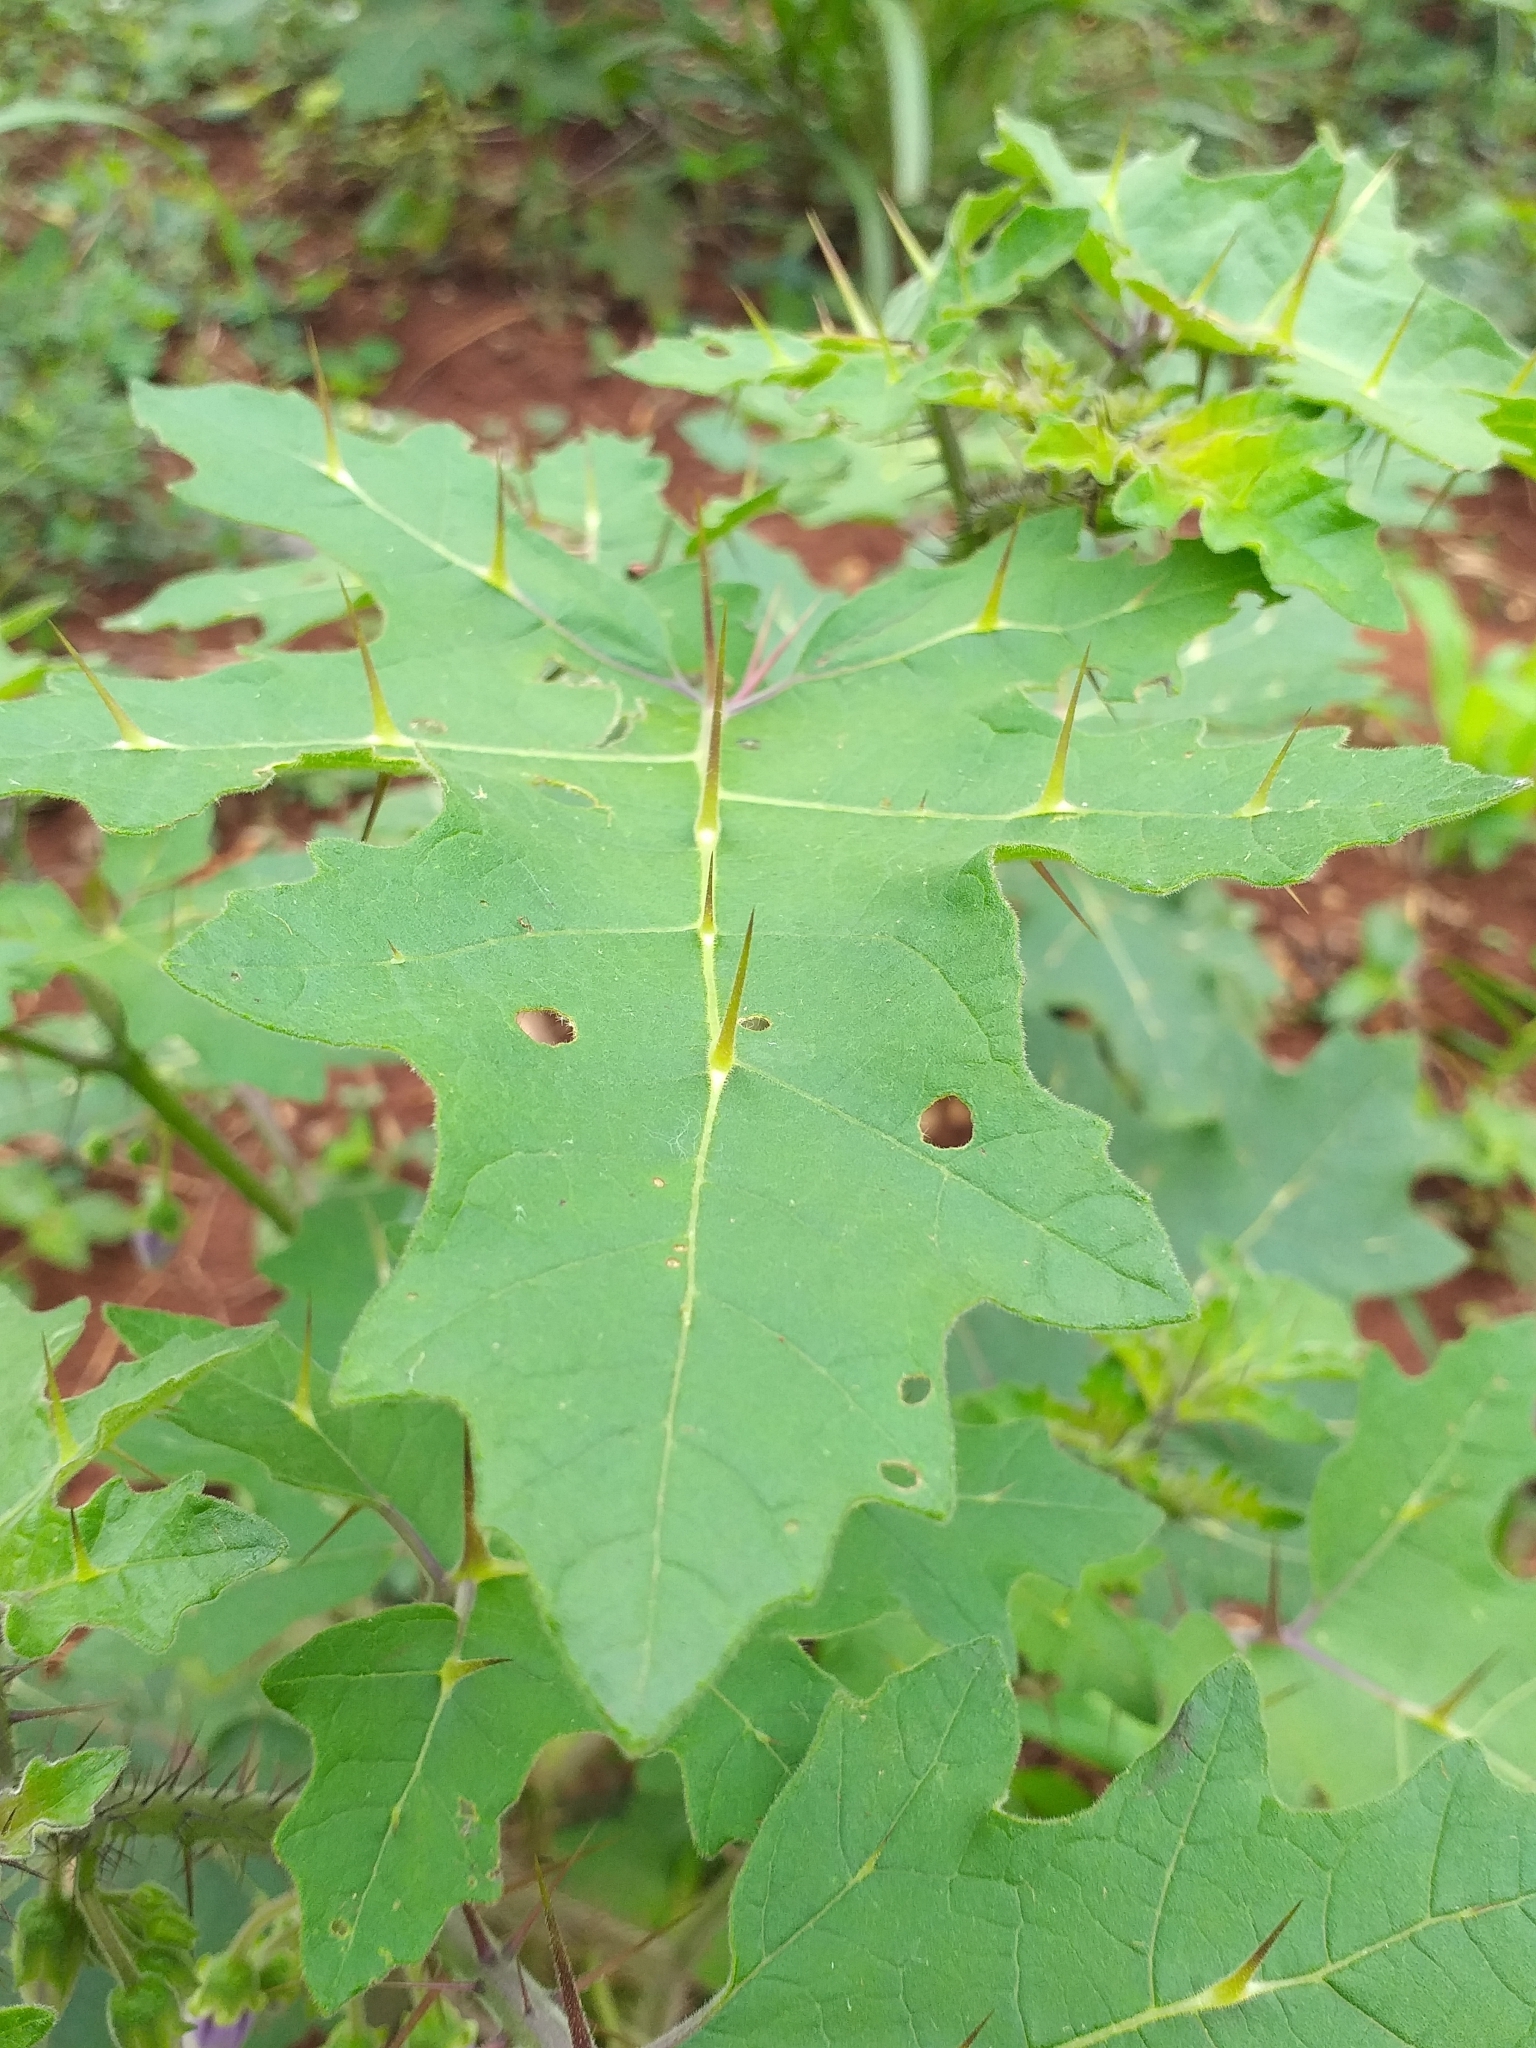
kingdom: Plantae
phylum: Tracheophyta
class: Magnoliopsida
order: Solanales
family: Solanaceae
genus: Solanum
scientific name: Solanum palinacanthum
